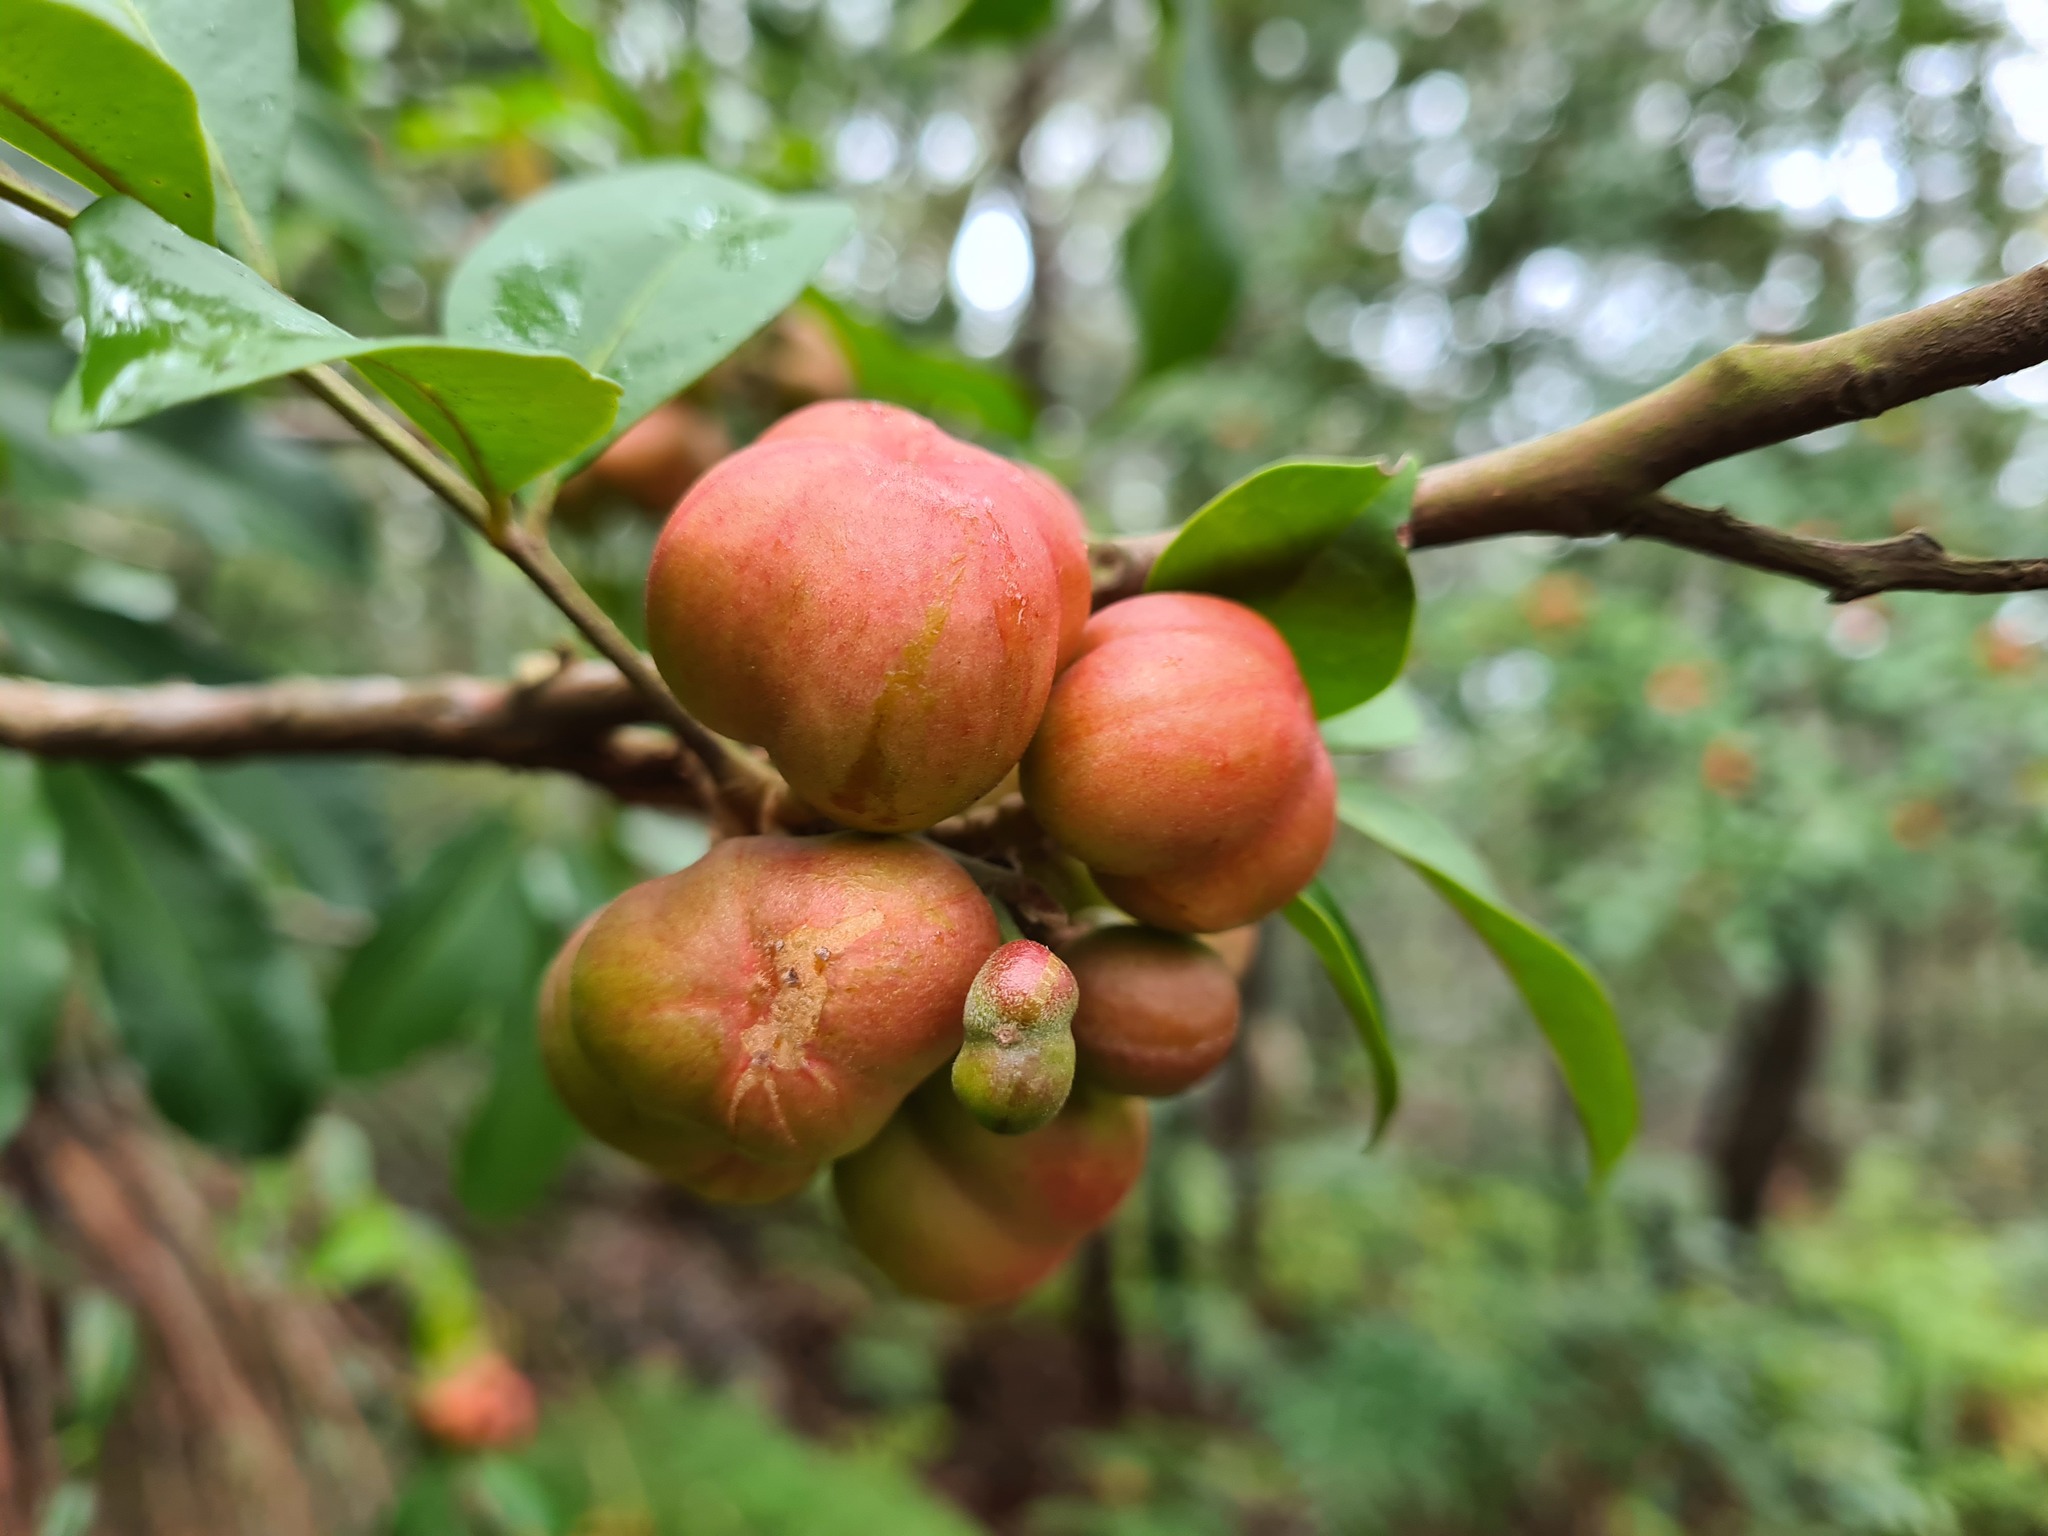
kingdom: Plantae
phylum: Tracheophyta
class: Magnoliopsida
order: Sapindales
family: Meliaceae
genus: Synoum
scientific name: Synoum glandulosum
